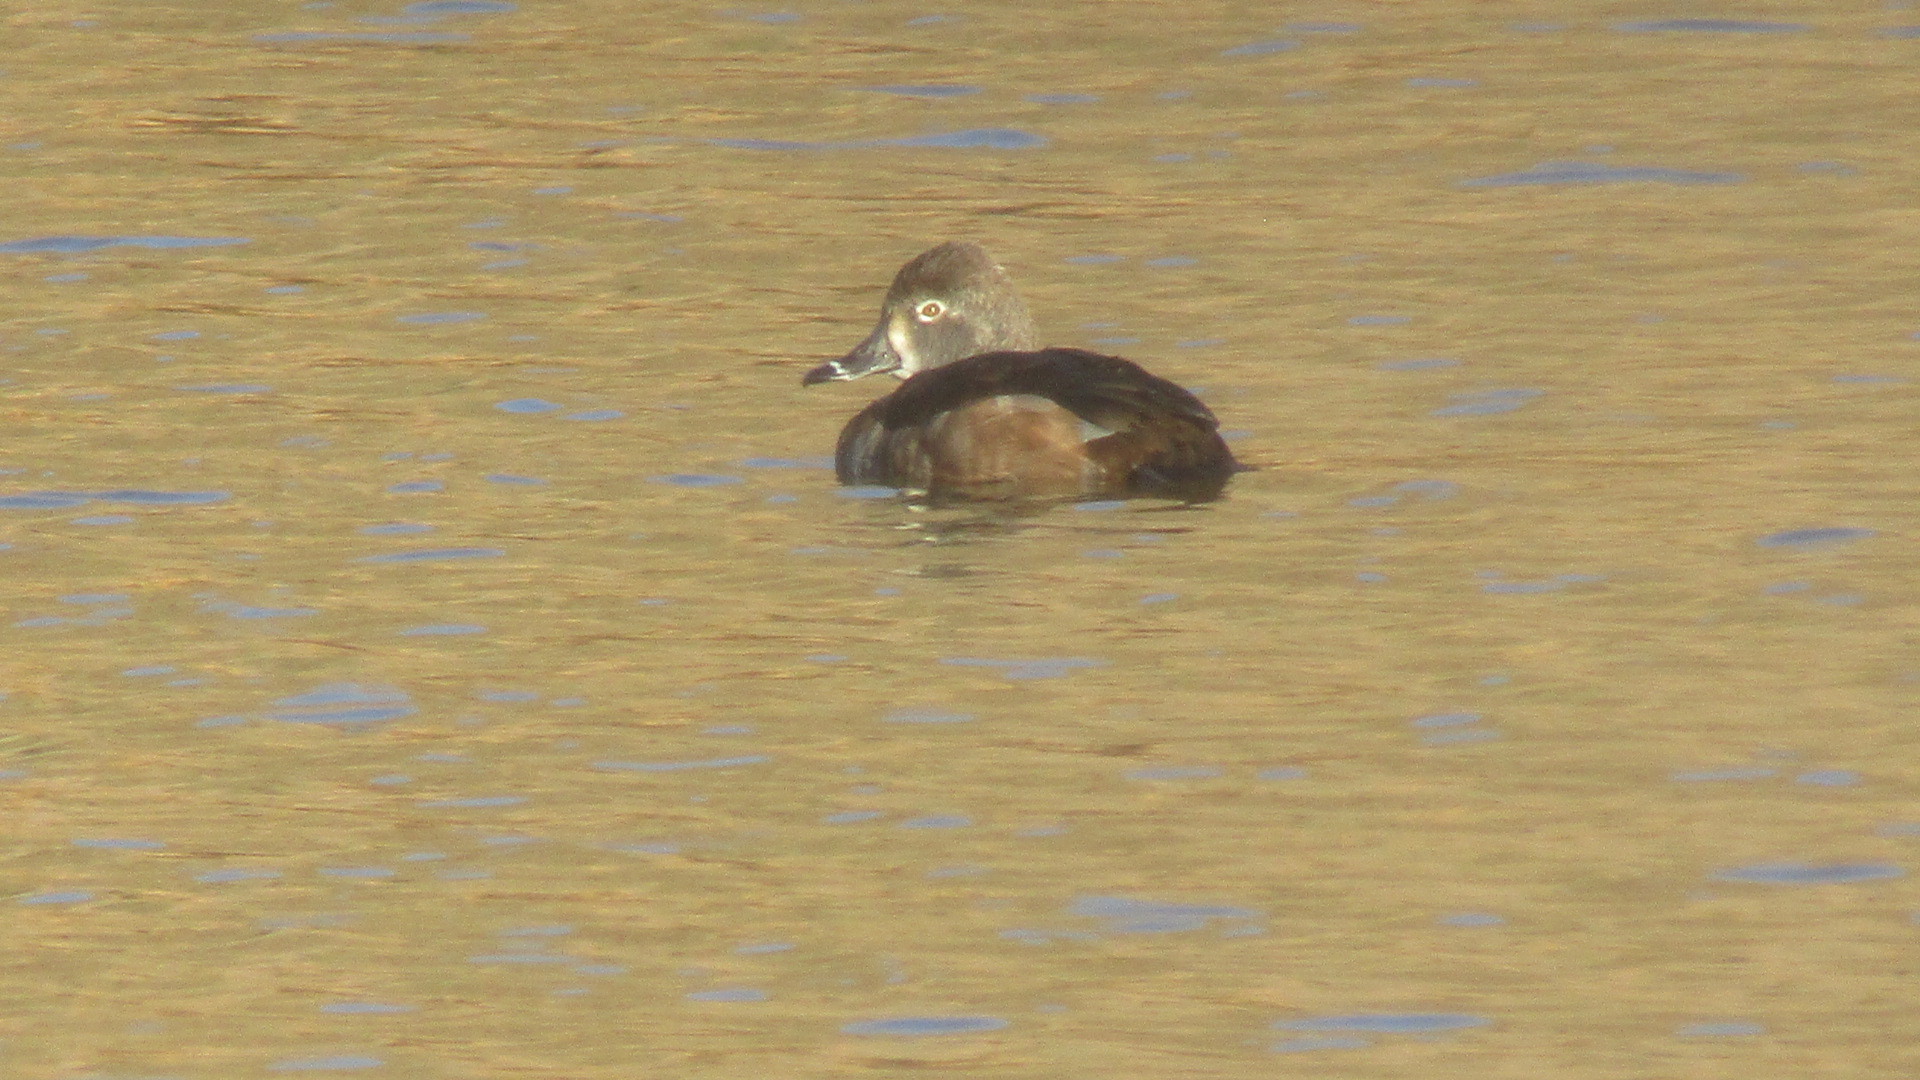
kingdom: Animalia
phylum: Chordata
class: Aves
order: Anseriformes
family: Anatidae
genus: Aythya
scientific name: Aythya collaris
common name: Ring-necked duck
